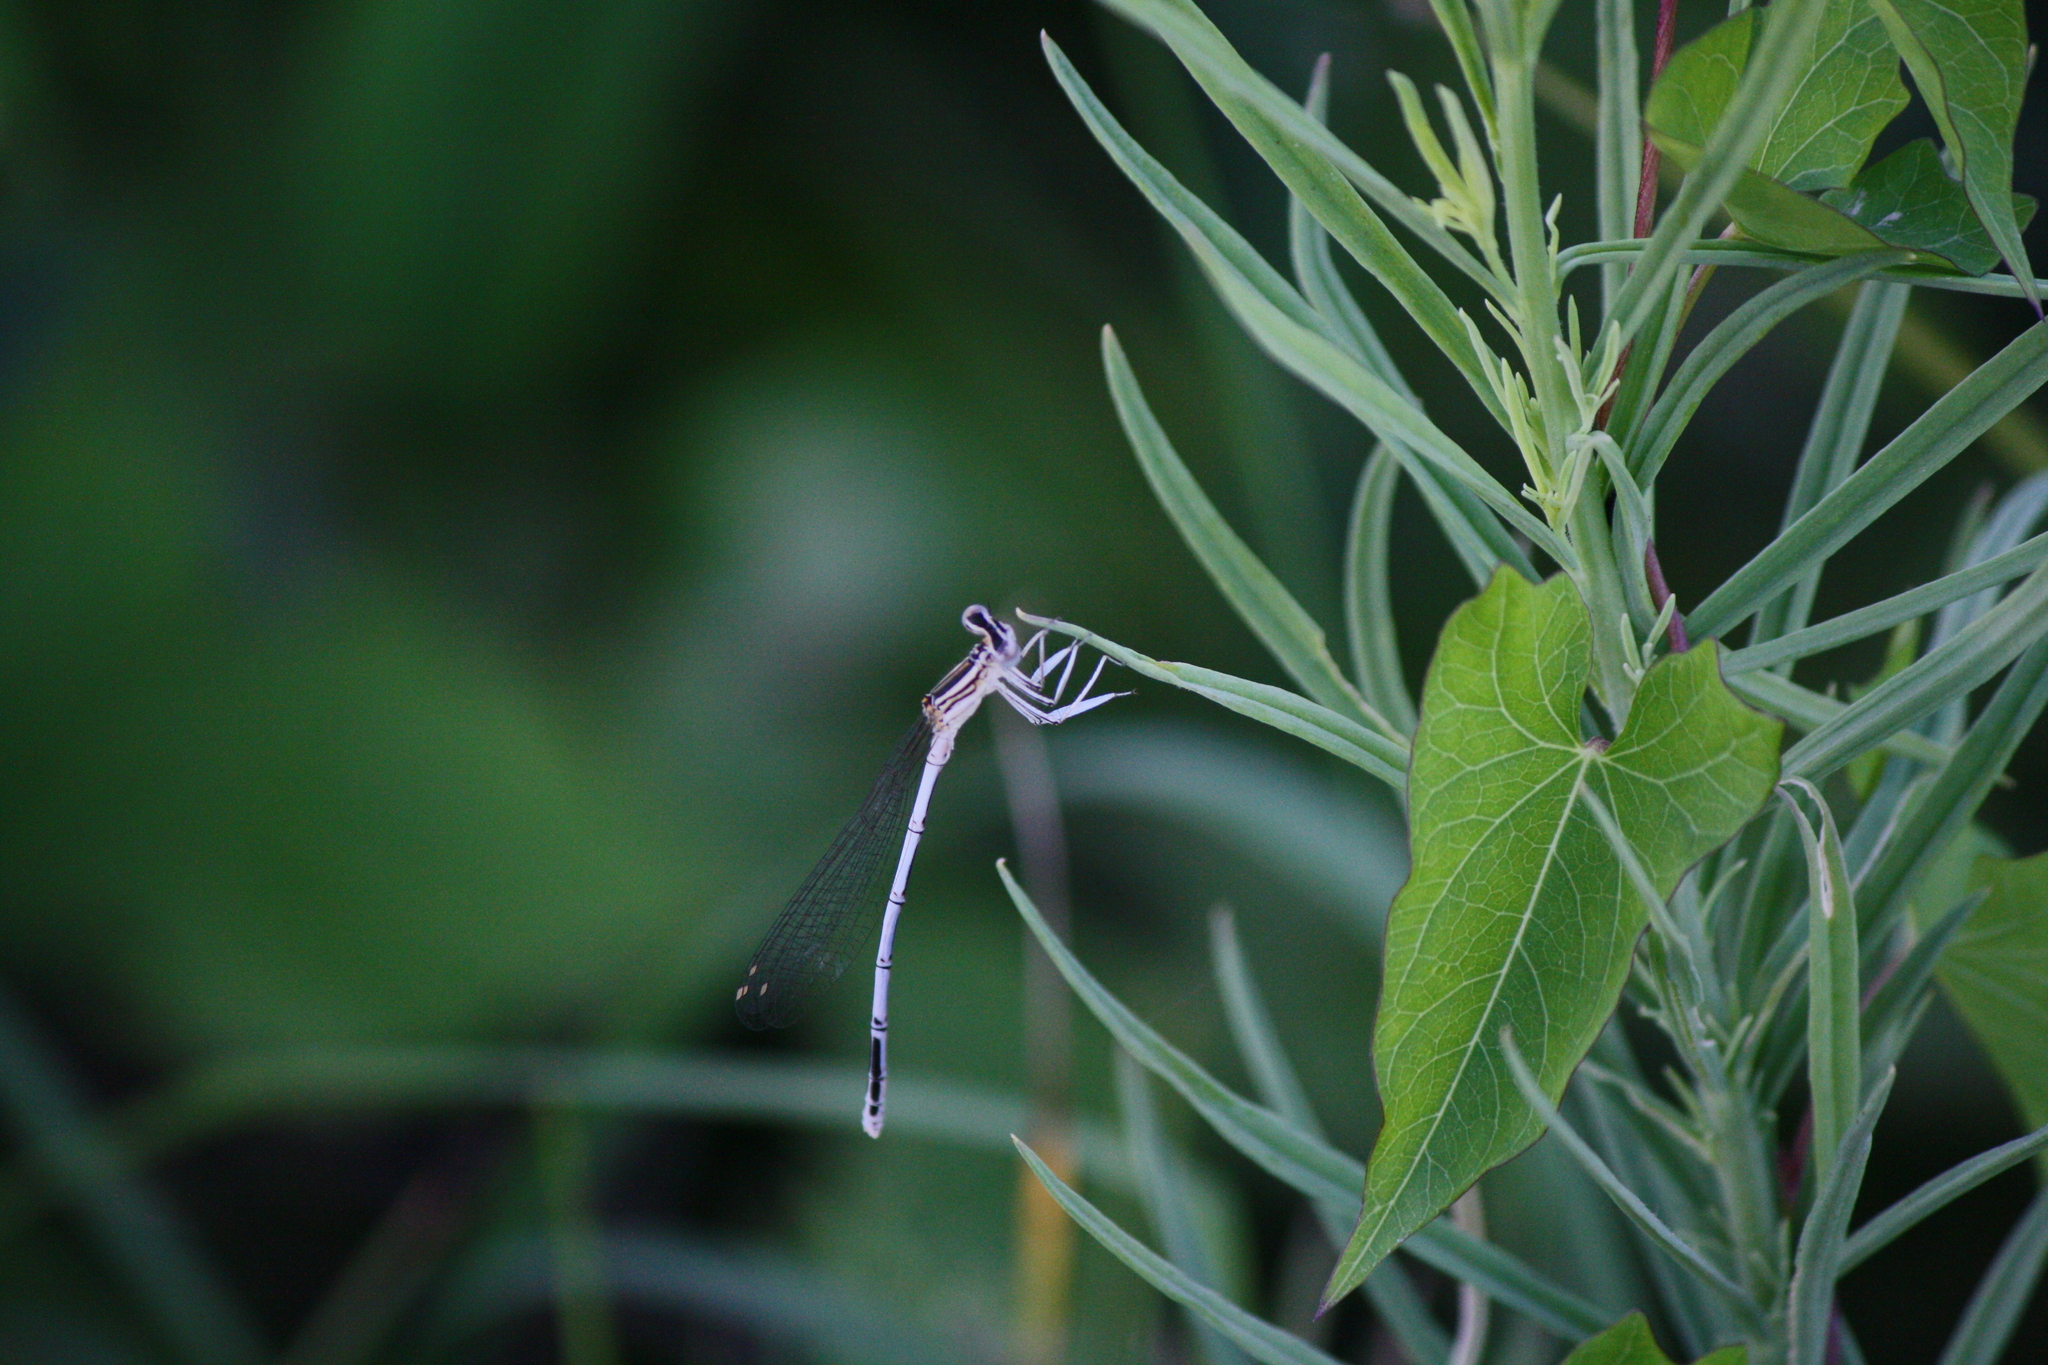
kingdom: Animalia
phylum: Arthropoda
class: Insecta
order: Odonata
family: Platycnemididae
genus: Platycnemis
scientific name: Platycnemis pennipes
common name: White-legged damselfly
